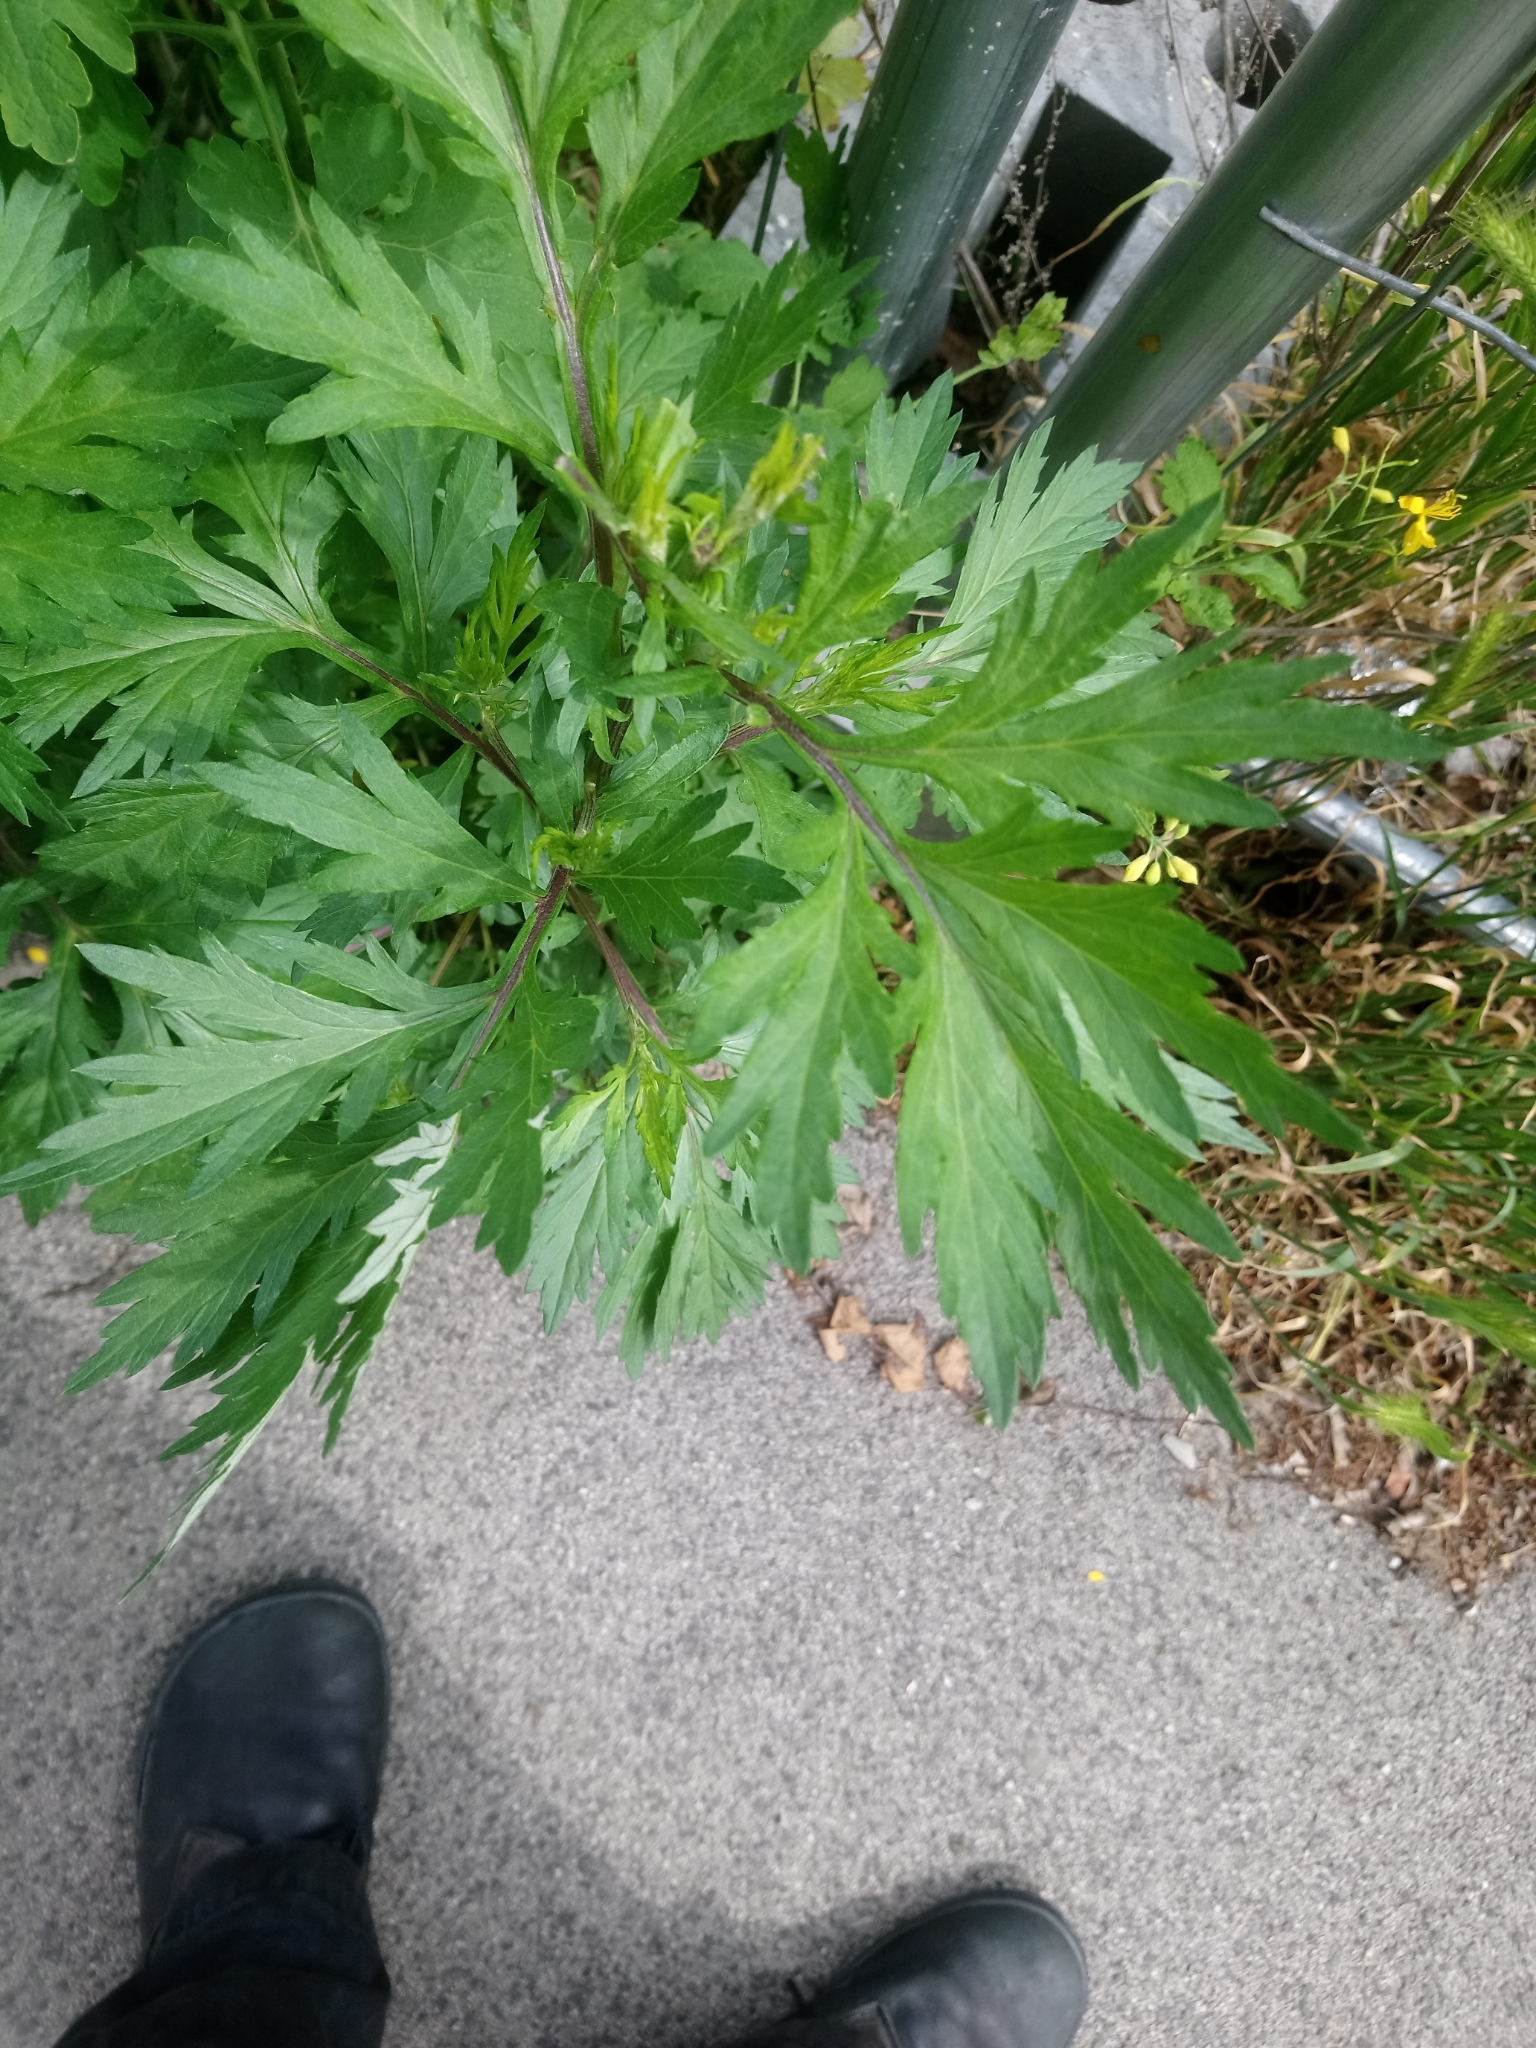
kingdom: Plantae
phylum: Tracheophyta
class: Magnoliopsida
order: Asterales
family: Asteraceae
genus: Artemisia
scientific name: Artemisia vulgaris
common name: Mugwort
